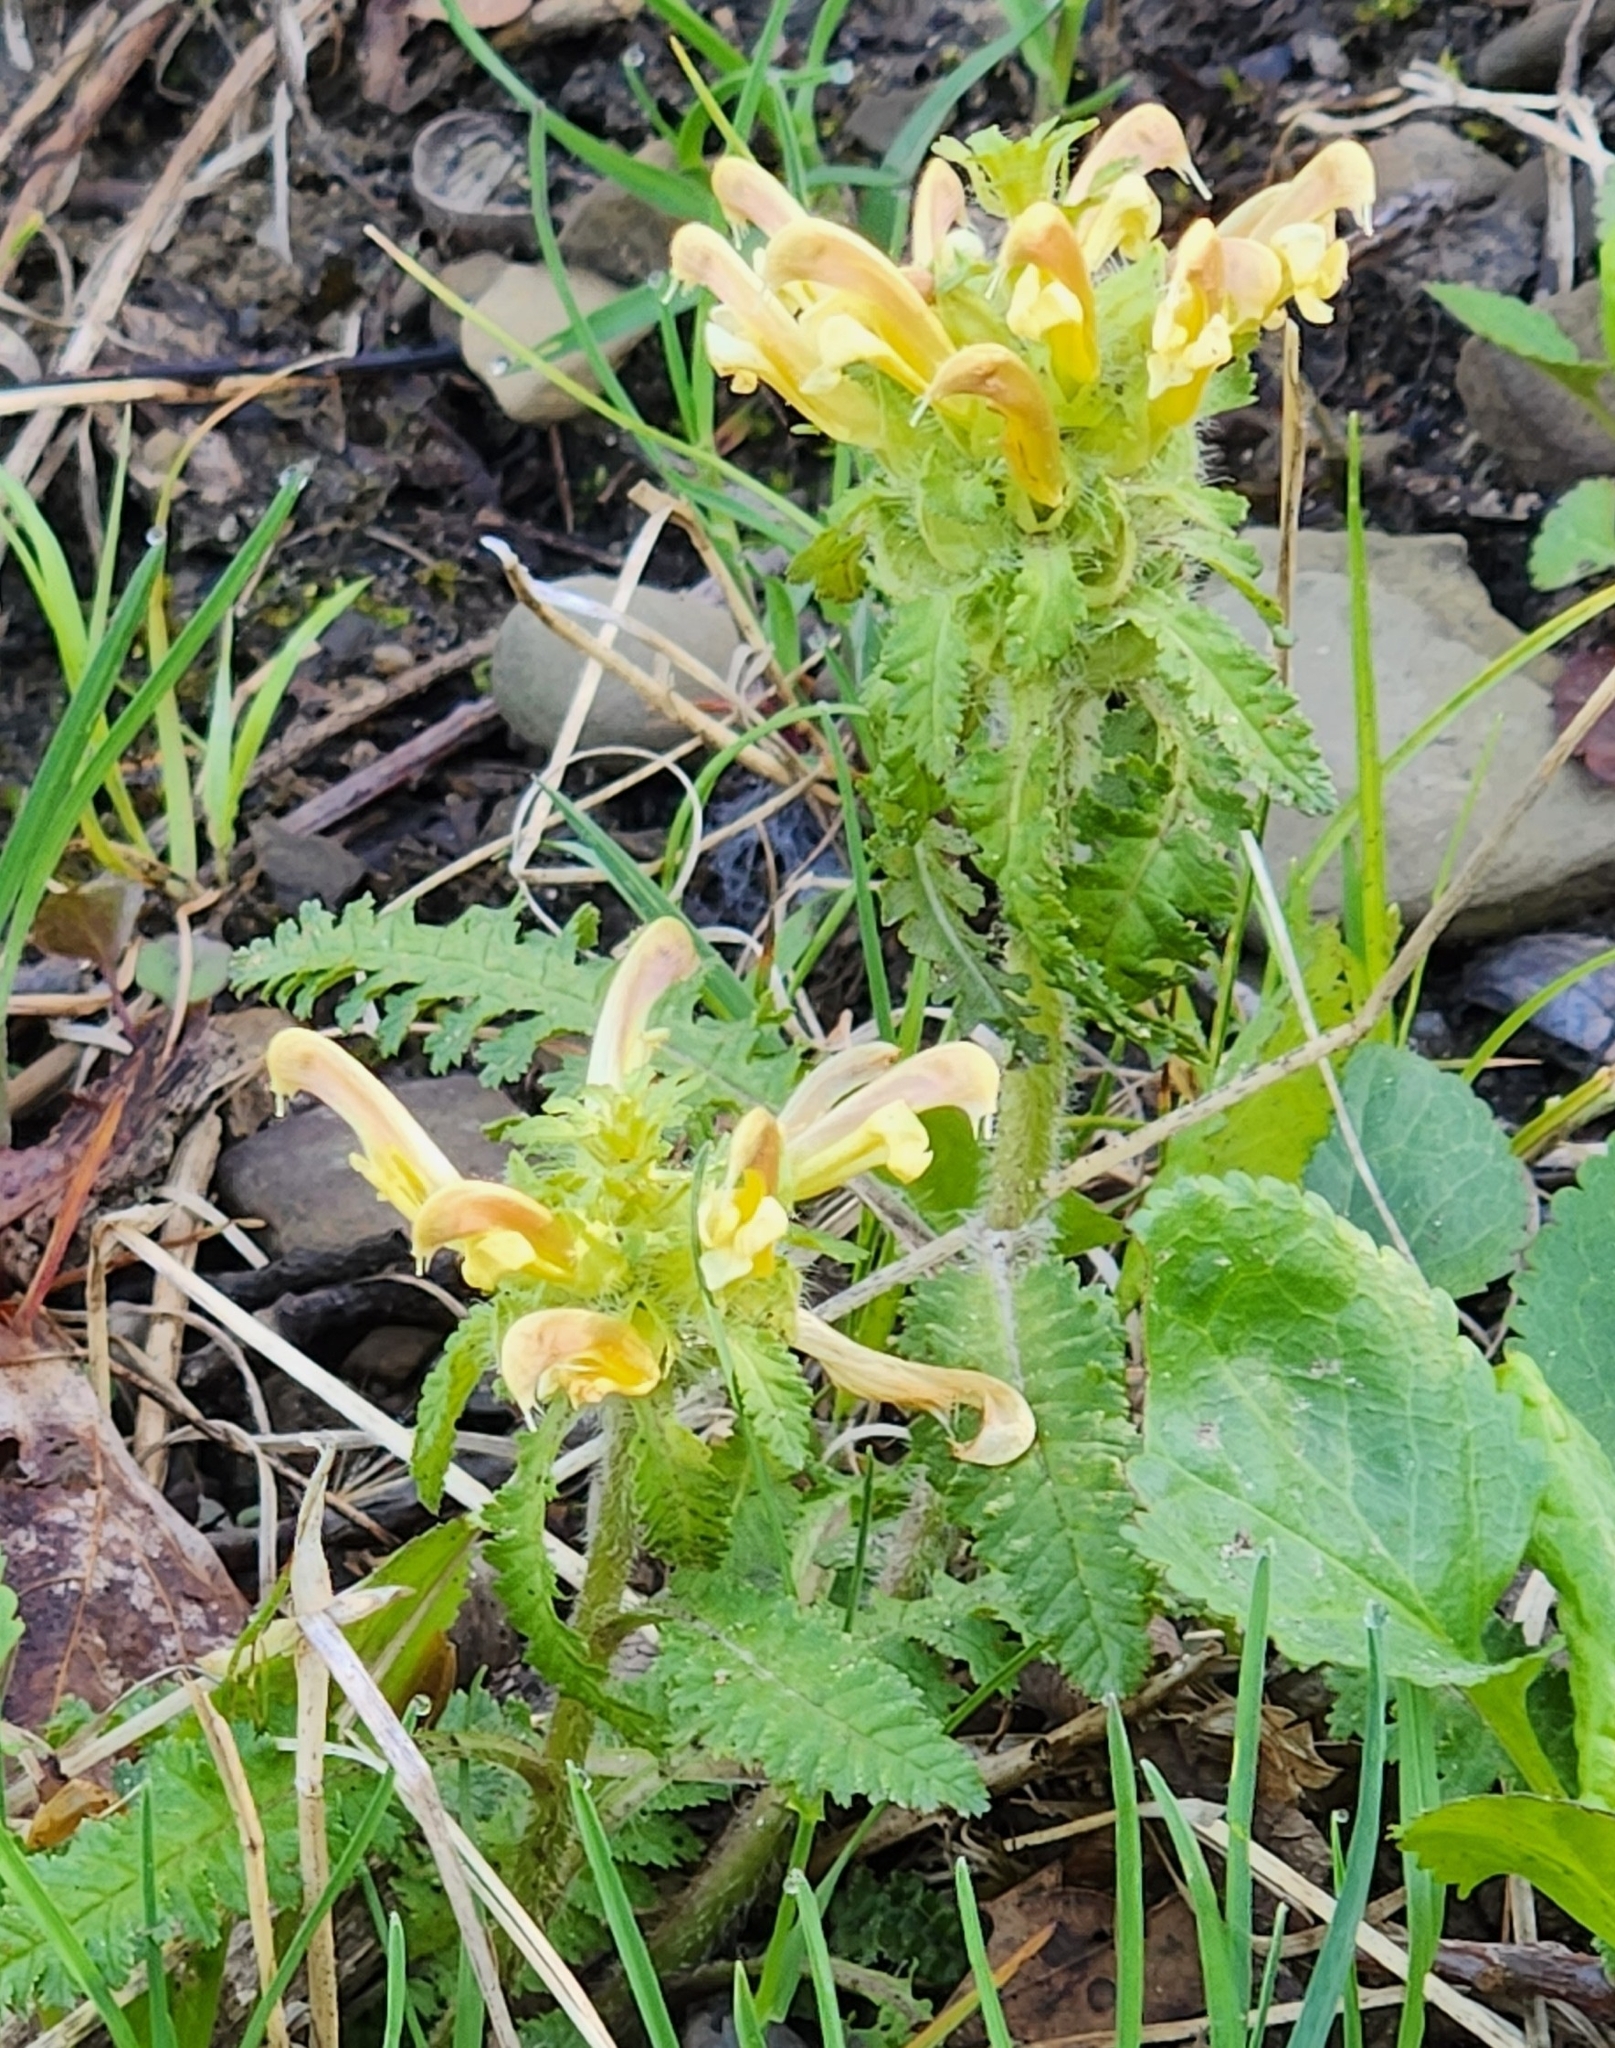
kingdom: Plantae
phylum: Tracheophyta
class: Magnoliopsida
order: Lamiales
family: Orobanchaceae
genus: Pedicularis
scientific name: Pedicularis canadensis
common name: Early lousewort
